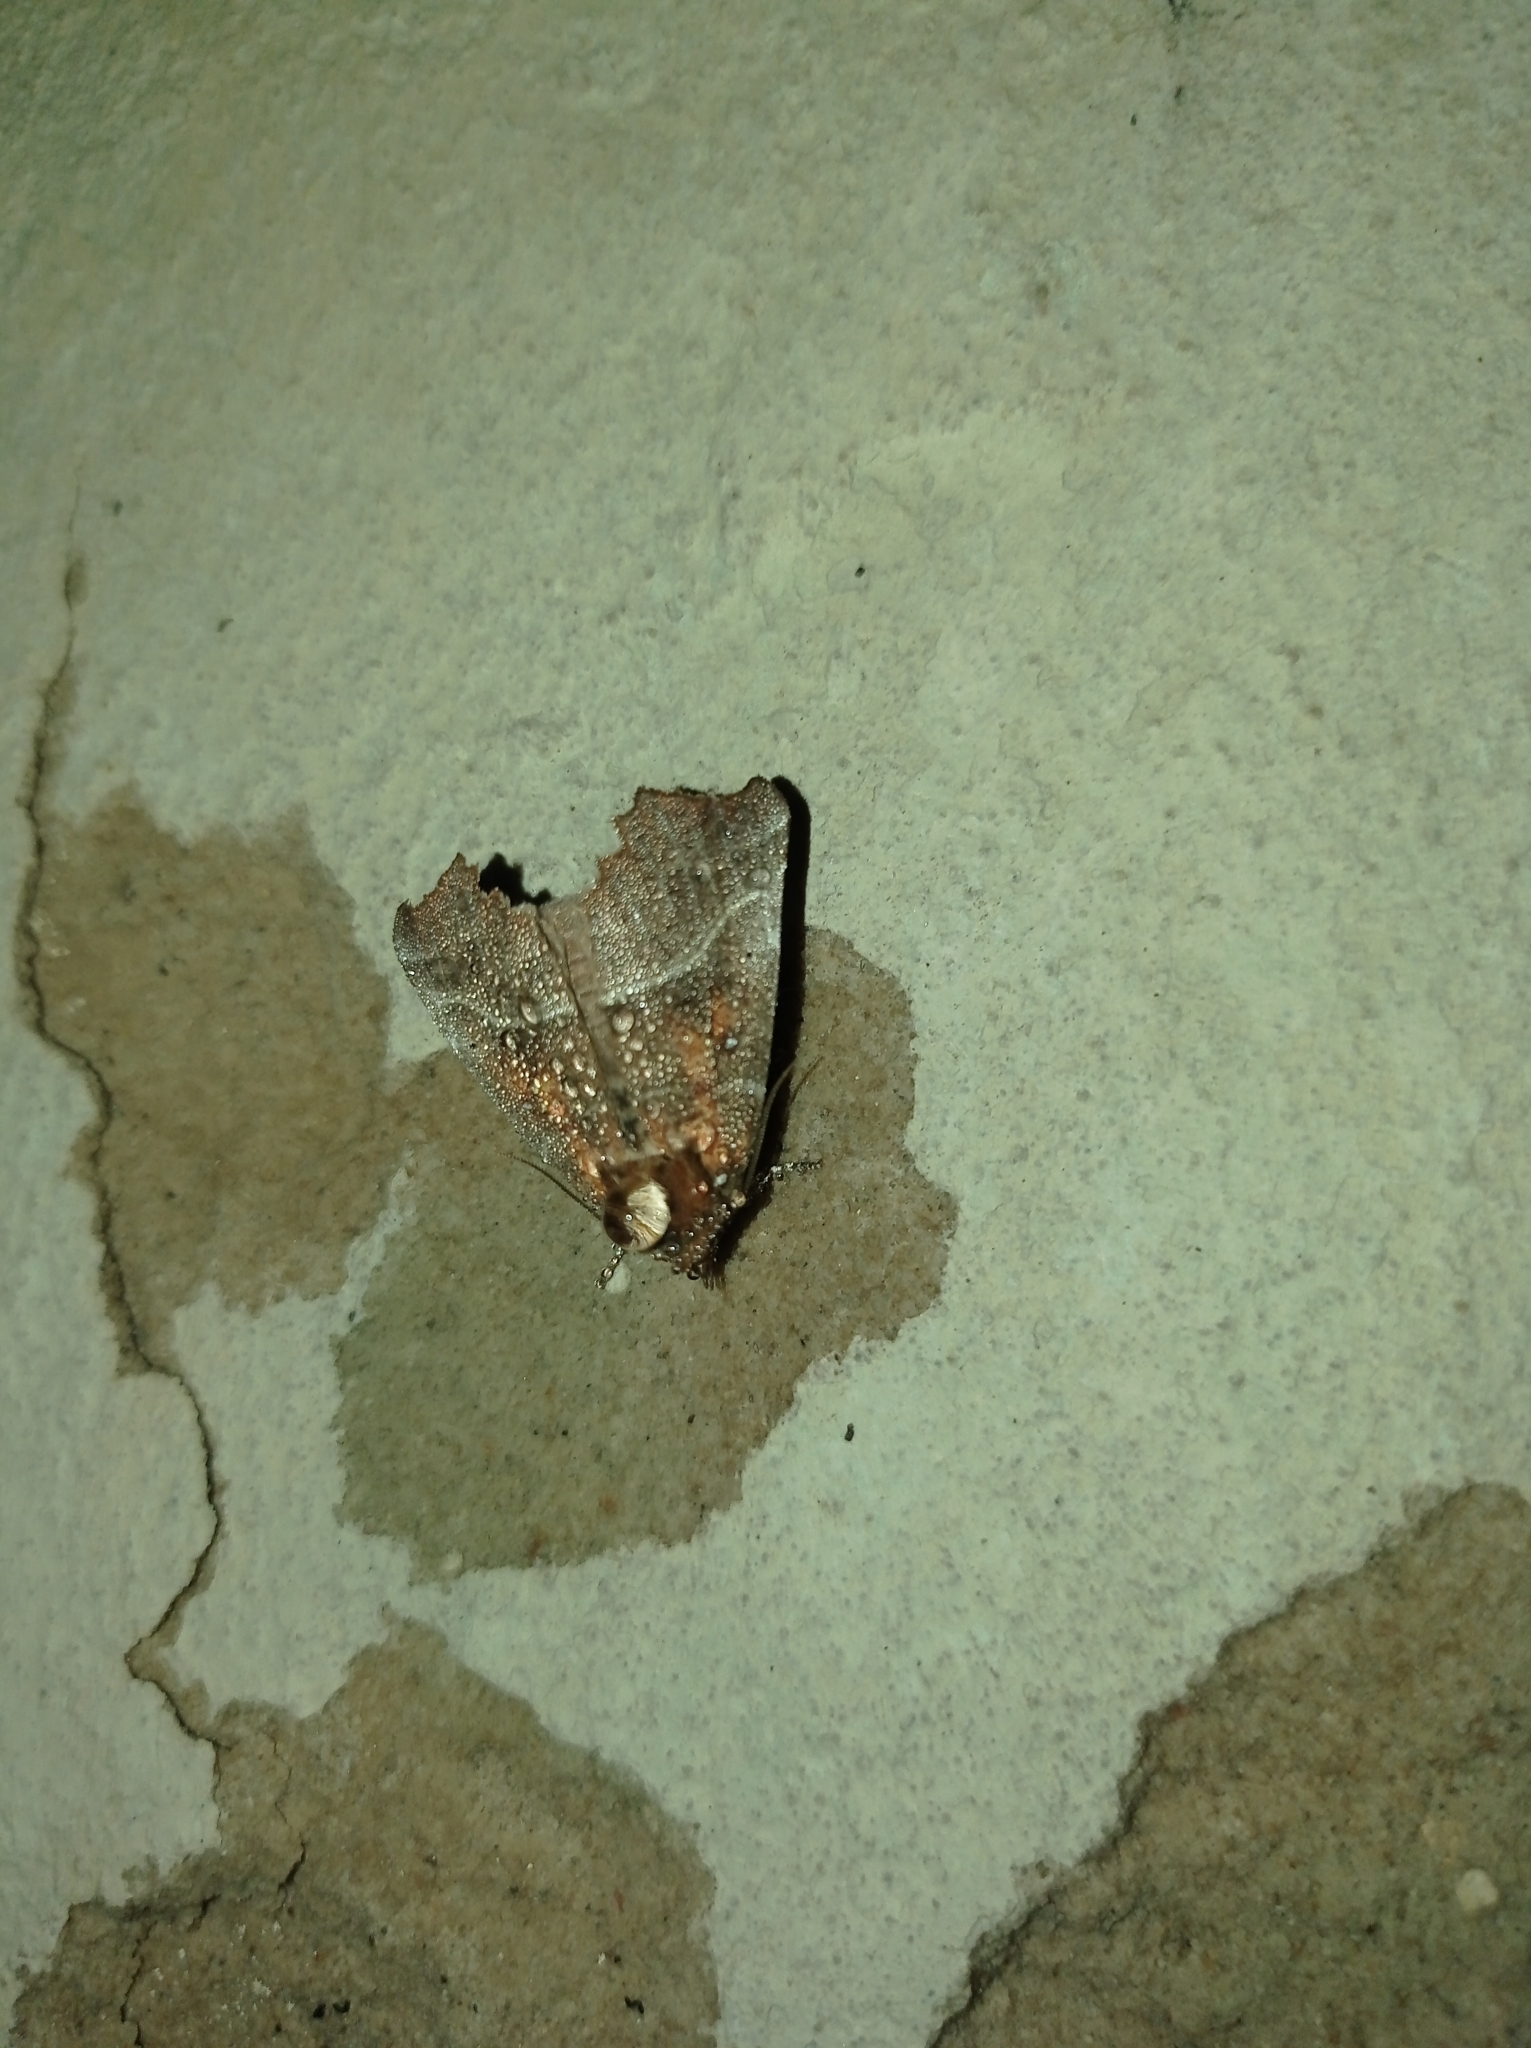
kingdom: Animalia
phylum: Arthropoda
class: Insecta
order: Lepidoptera
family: Erebidae
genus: Scoliopteryx
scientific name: Scoliopteryx libatrix
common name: Herald
